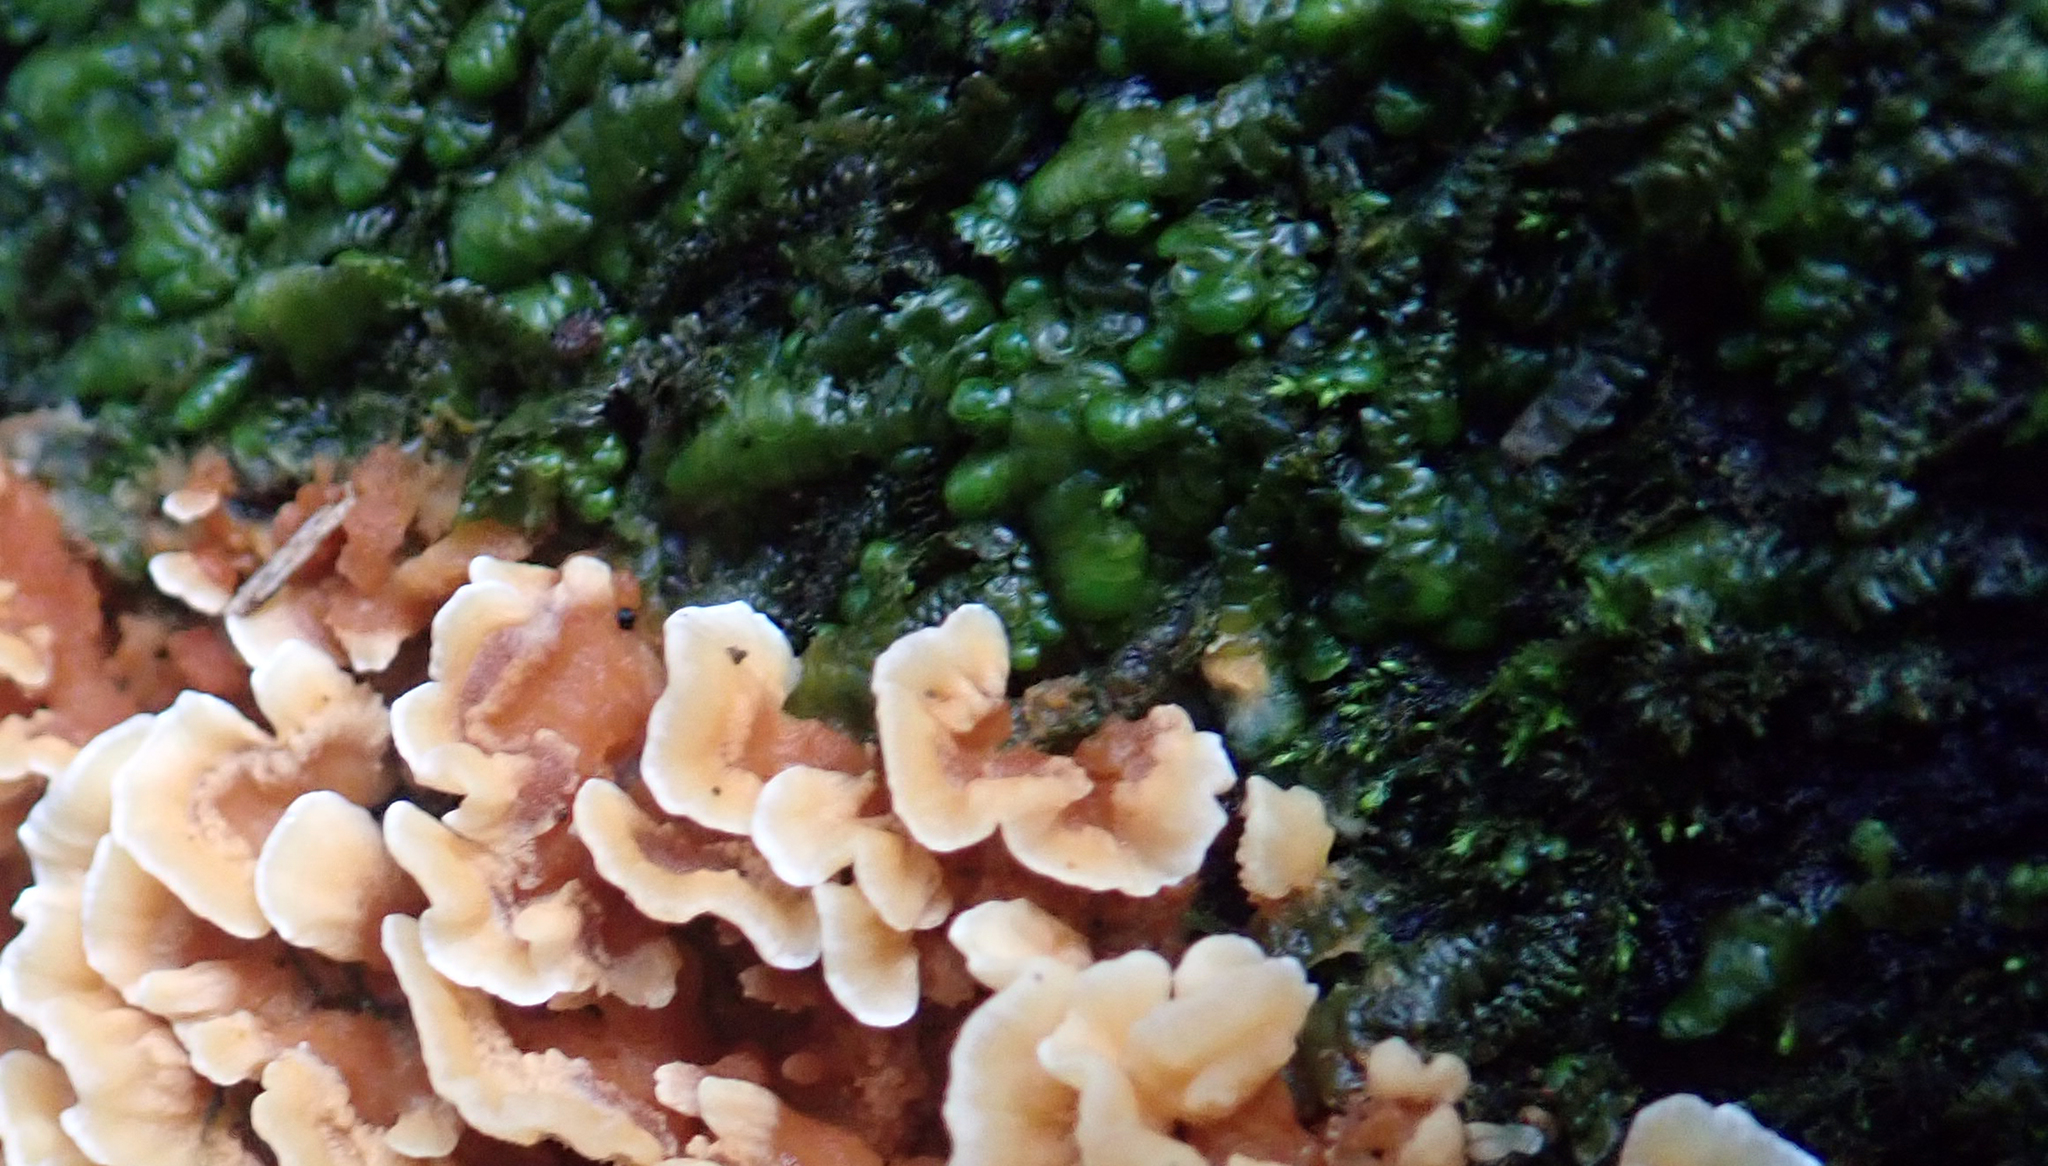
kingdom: Plantae
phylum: Marchantiophyta
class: Jungermanniopsida
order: Porellales
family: Radulaceae
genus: Radula
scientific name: Radula marginata
